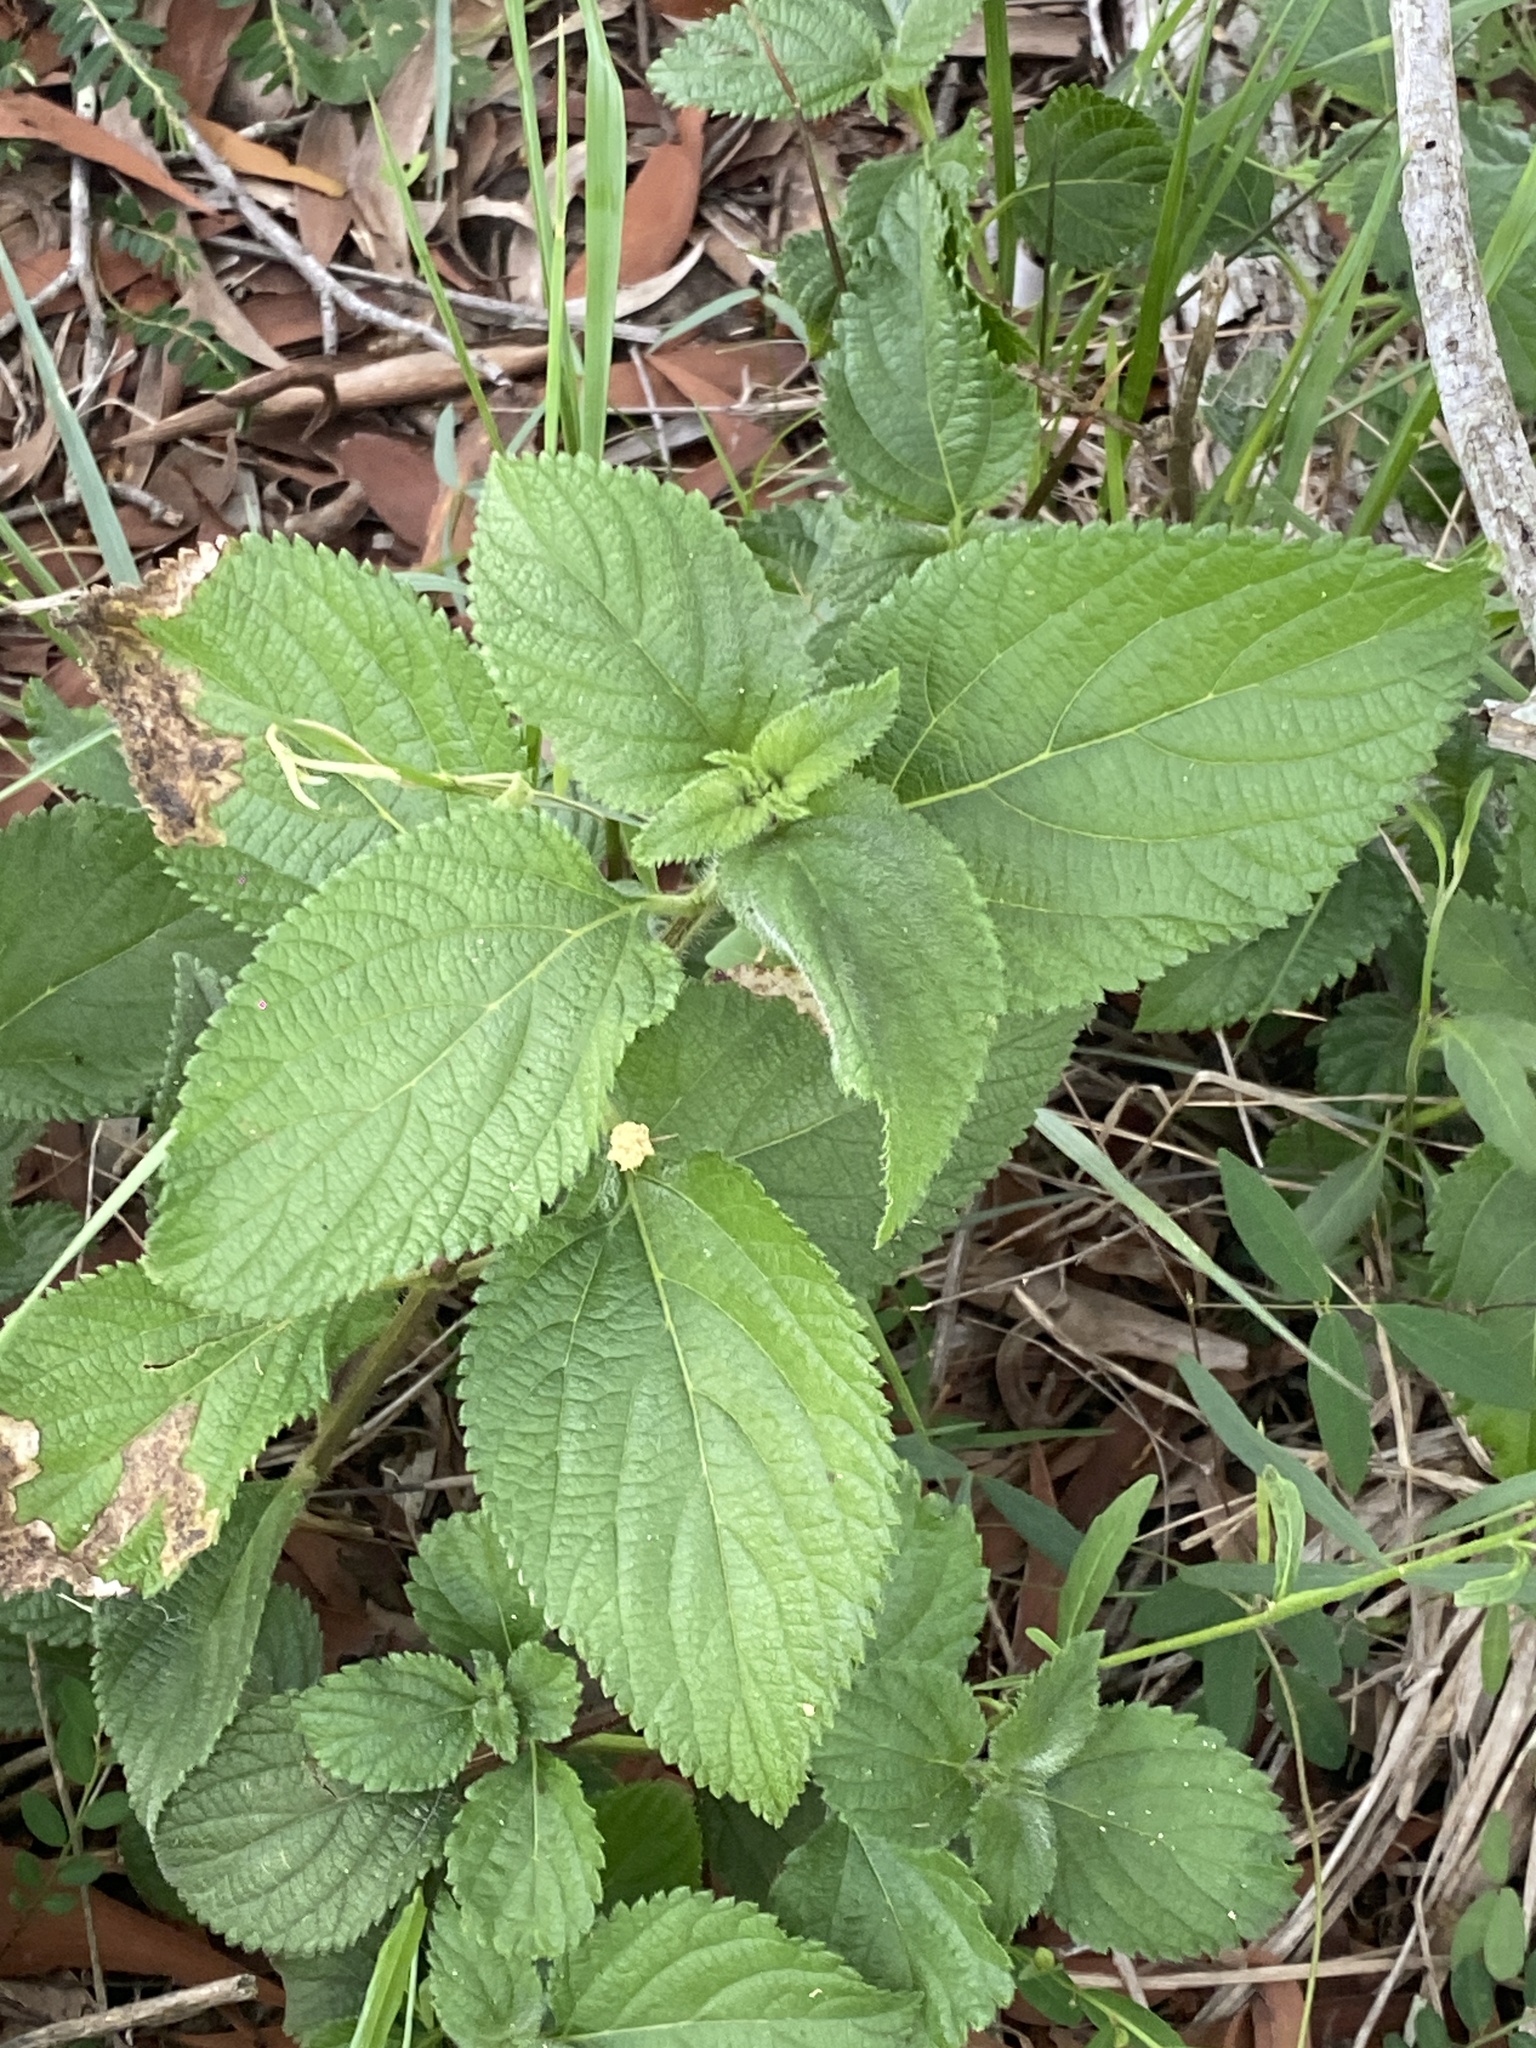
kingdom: Plantae
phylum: Tracheophyta
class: Magnoliopsida
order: Lamiales
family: Verbenaceae
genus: Lantana
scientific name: Lantana camara
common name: Lantana
